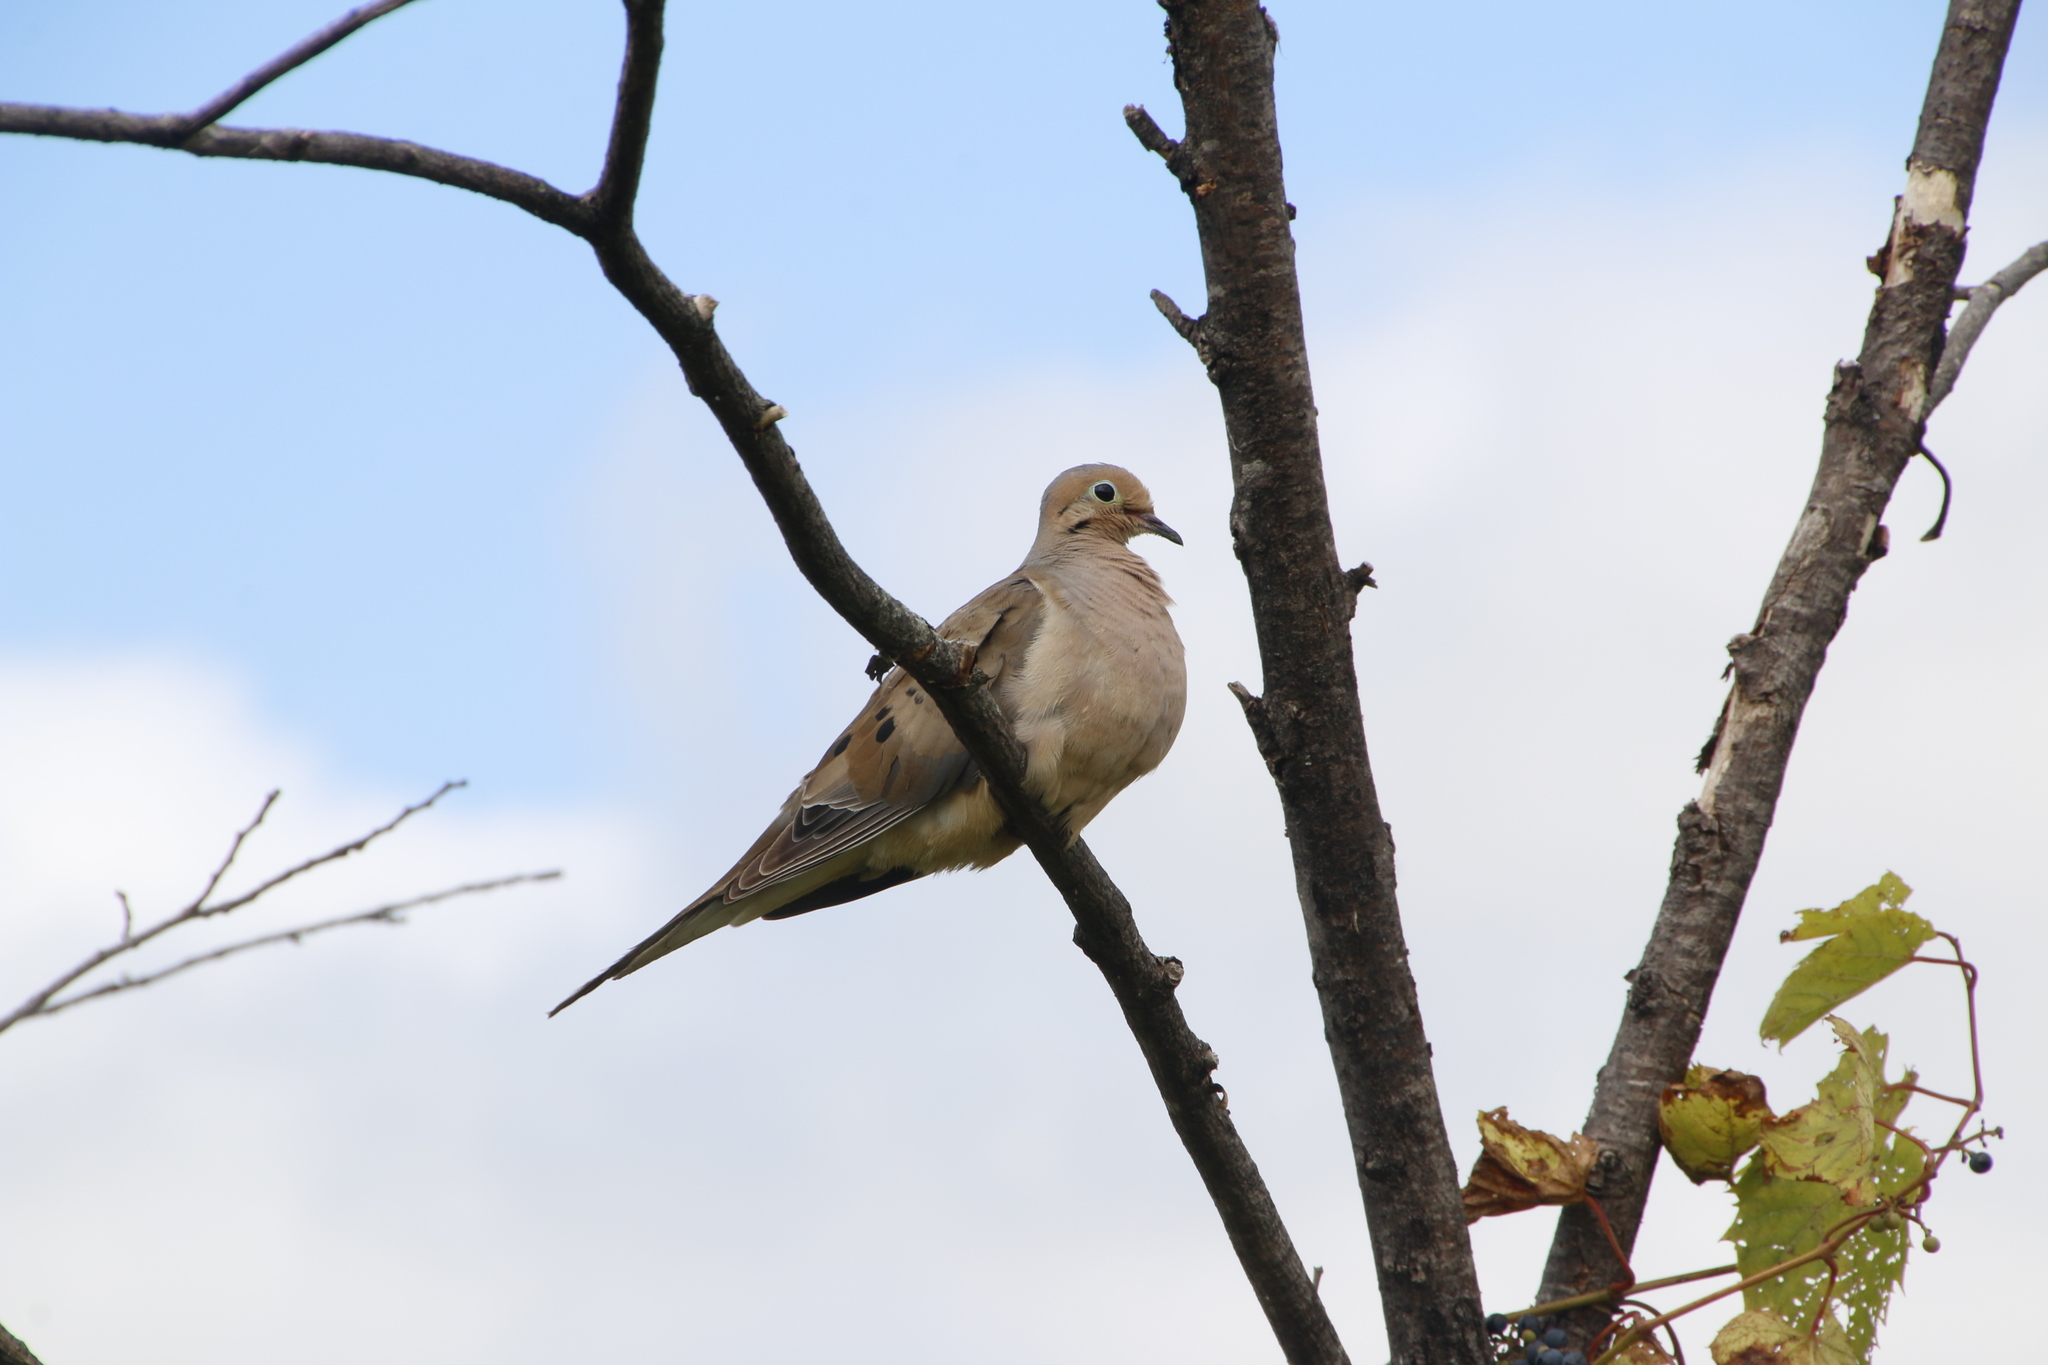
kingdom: Animalia
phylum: Chordata
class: Aves
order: Columbiformes
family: Columbidae
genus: Zenaida
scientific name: Zenaida macroura
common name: Mourning dove
